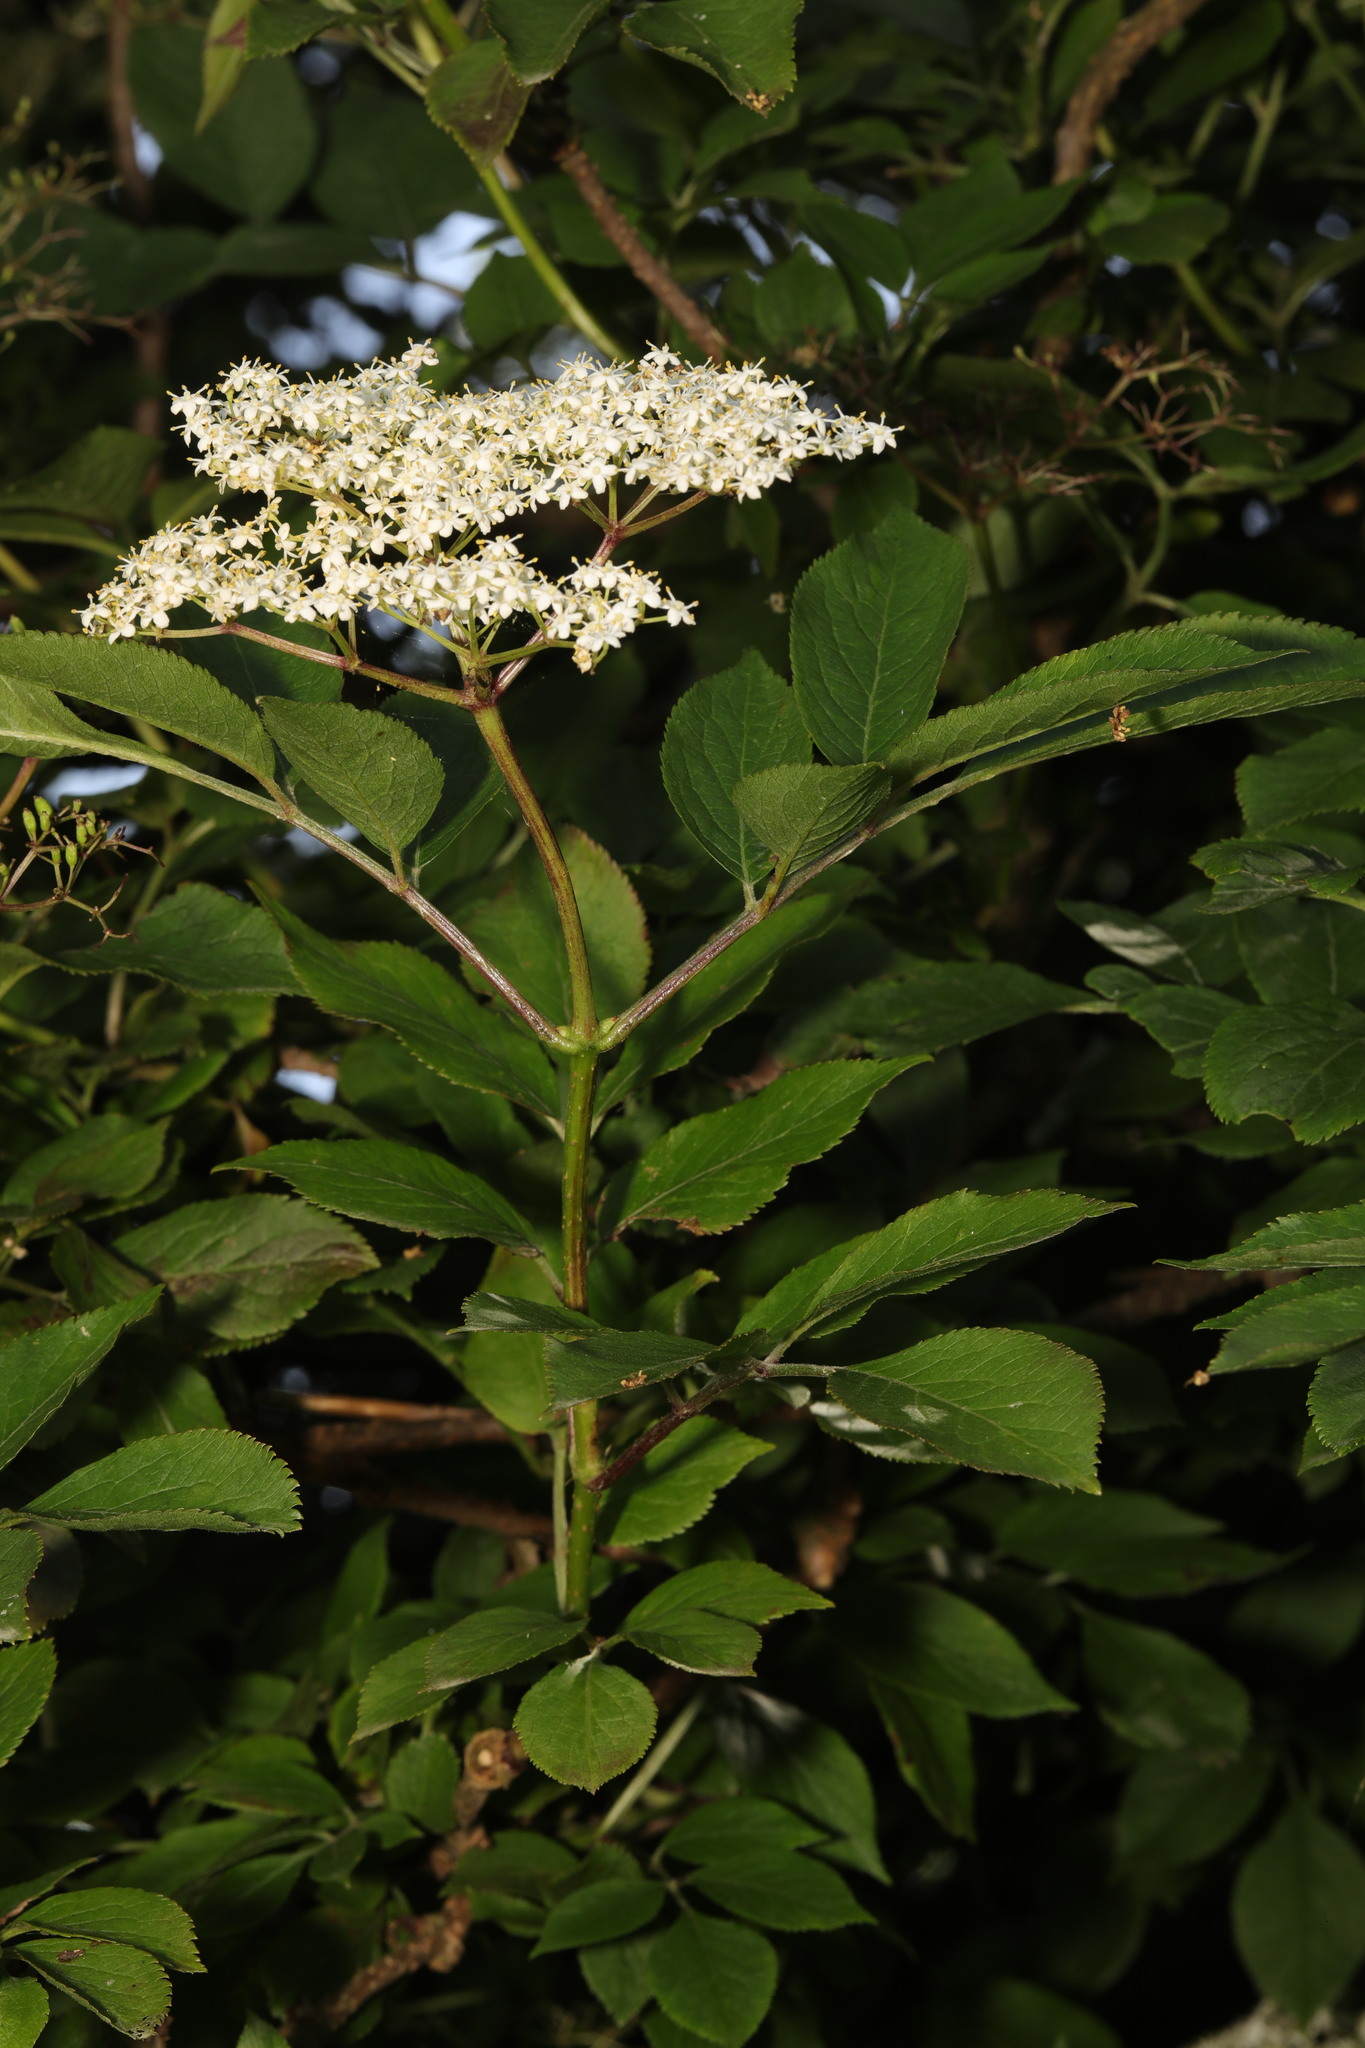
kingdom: Plantae
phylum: Tracheophyta
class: Magnoliopsida
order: Dipsacales
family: Viburnaceae
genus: Sambucus
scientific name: Sambucus nigra
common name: Elder
